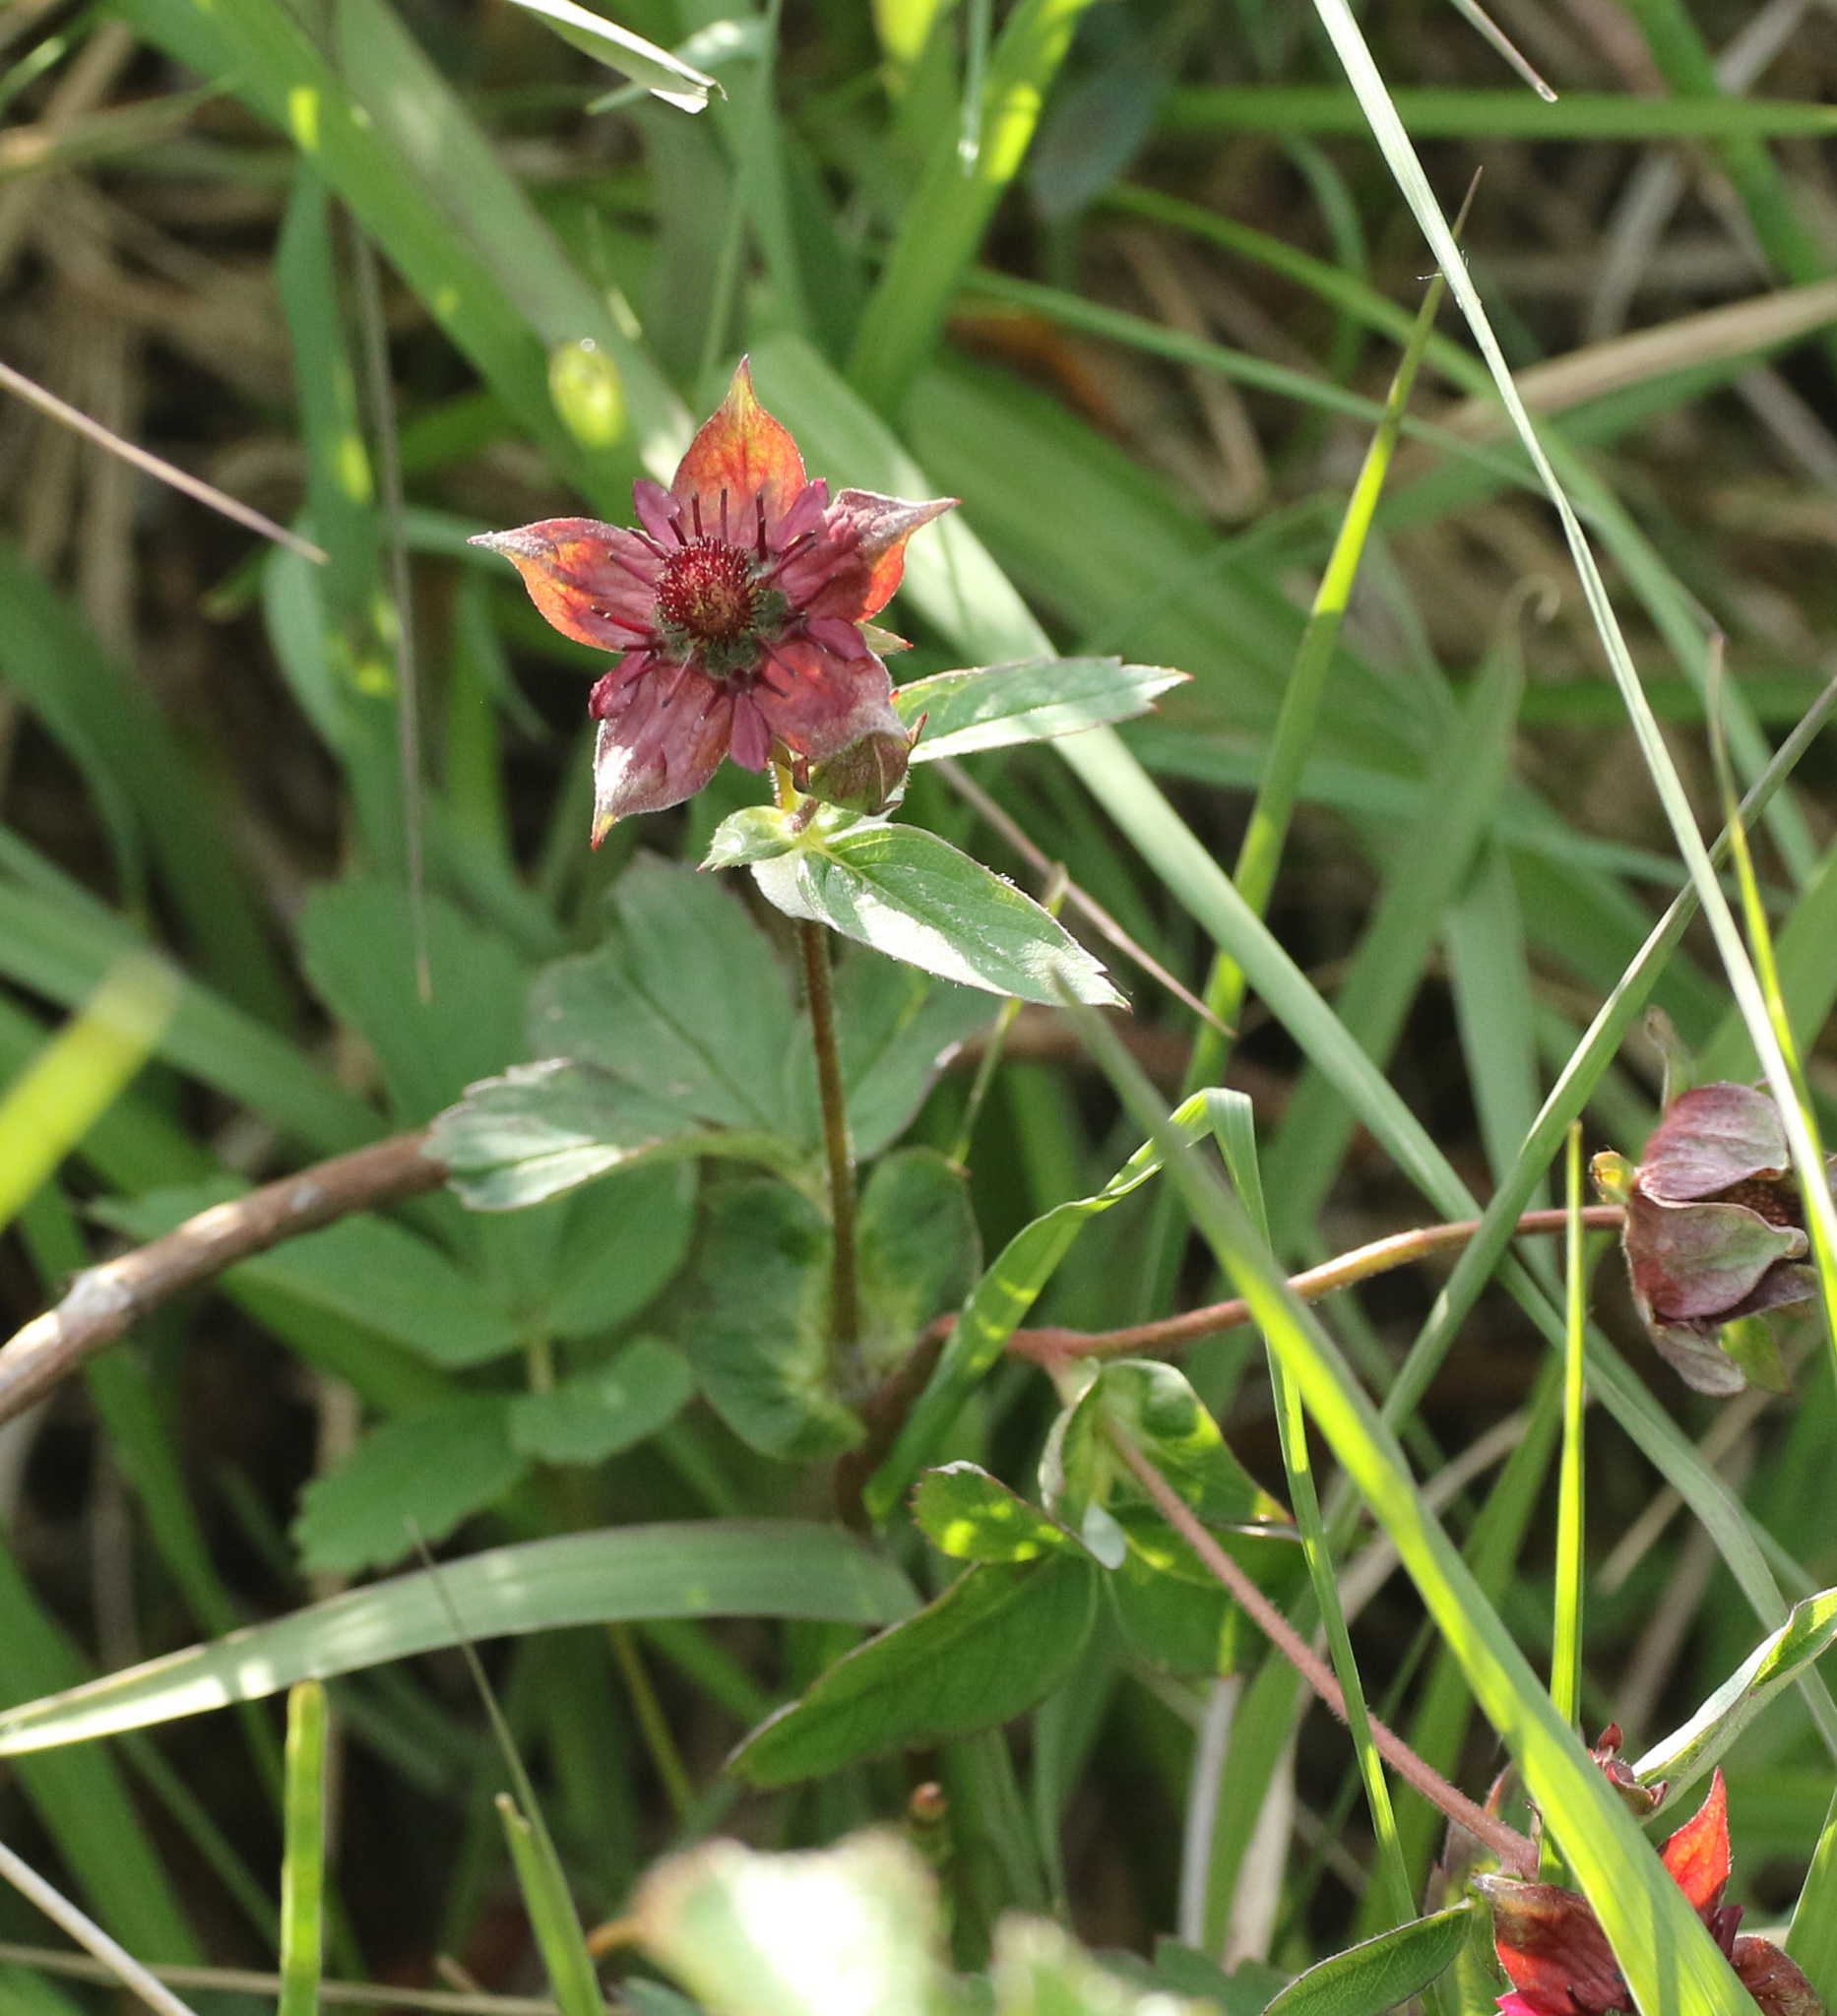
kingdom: Plantae
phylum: Tracheophyta
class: Magnoliopsida
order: Rosales
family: Rosaceae
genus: Comarum
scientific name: Comarum palustre
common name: Marsh cinquefoil
